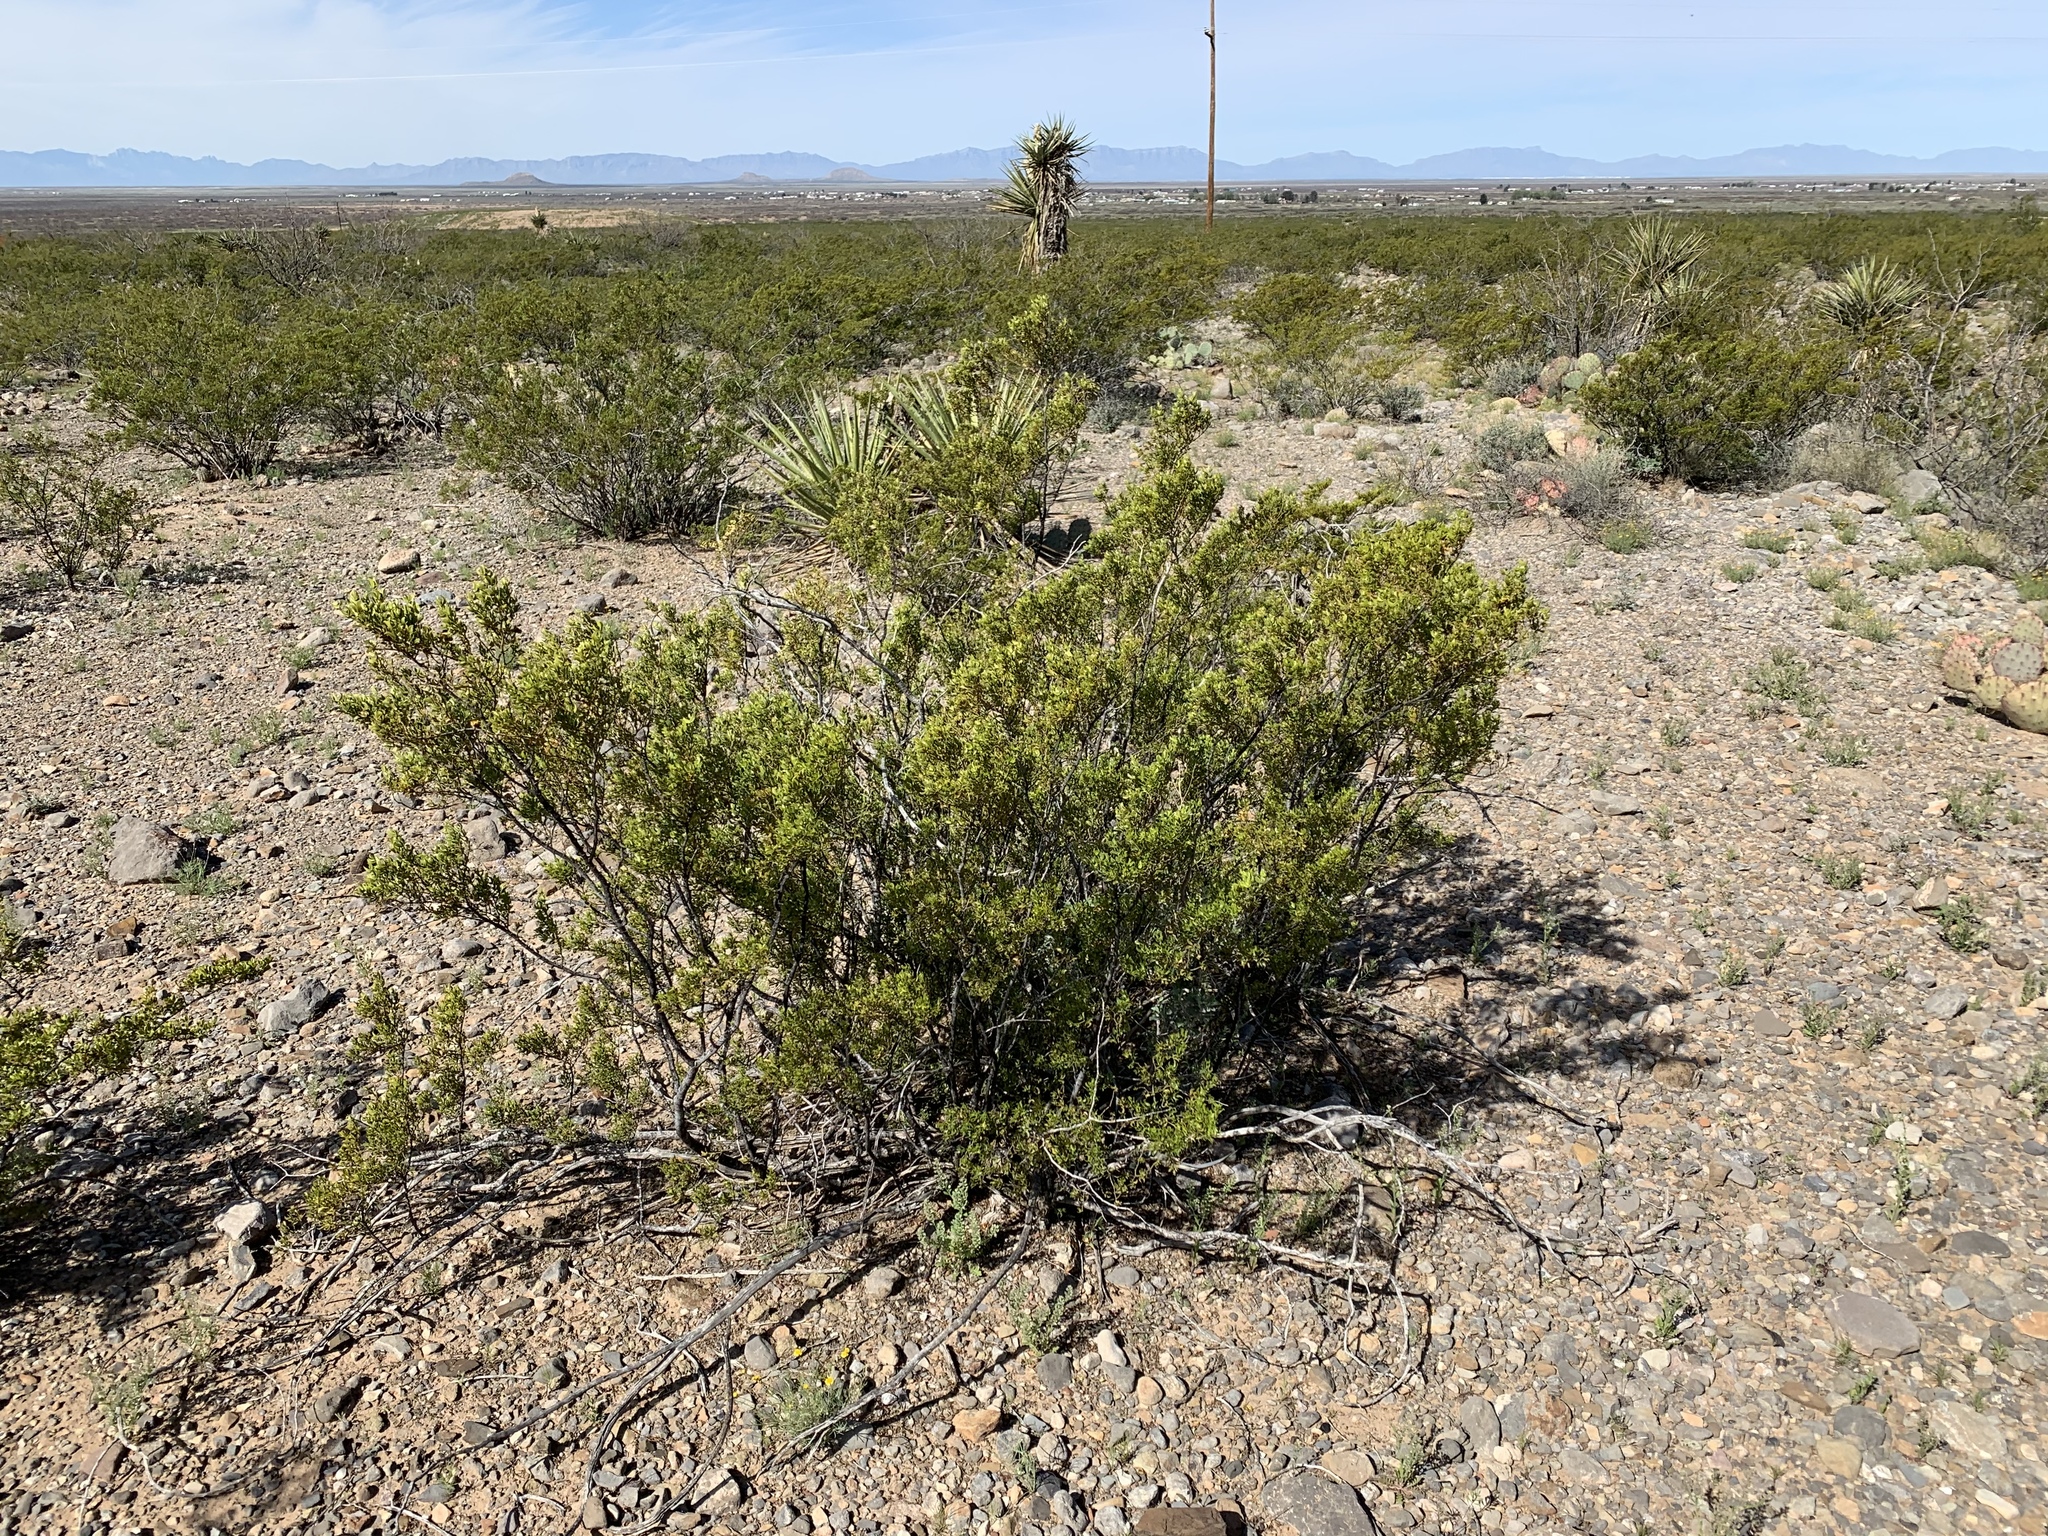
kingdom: Plantae
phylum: Tracheophyta
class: Magnoliopsida
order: Zygophyllales
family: Zygophyllaceae
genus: Larrea
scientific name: Larrea tridentata
